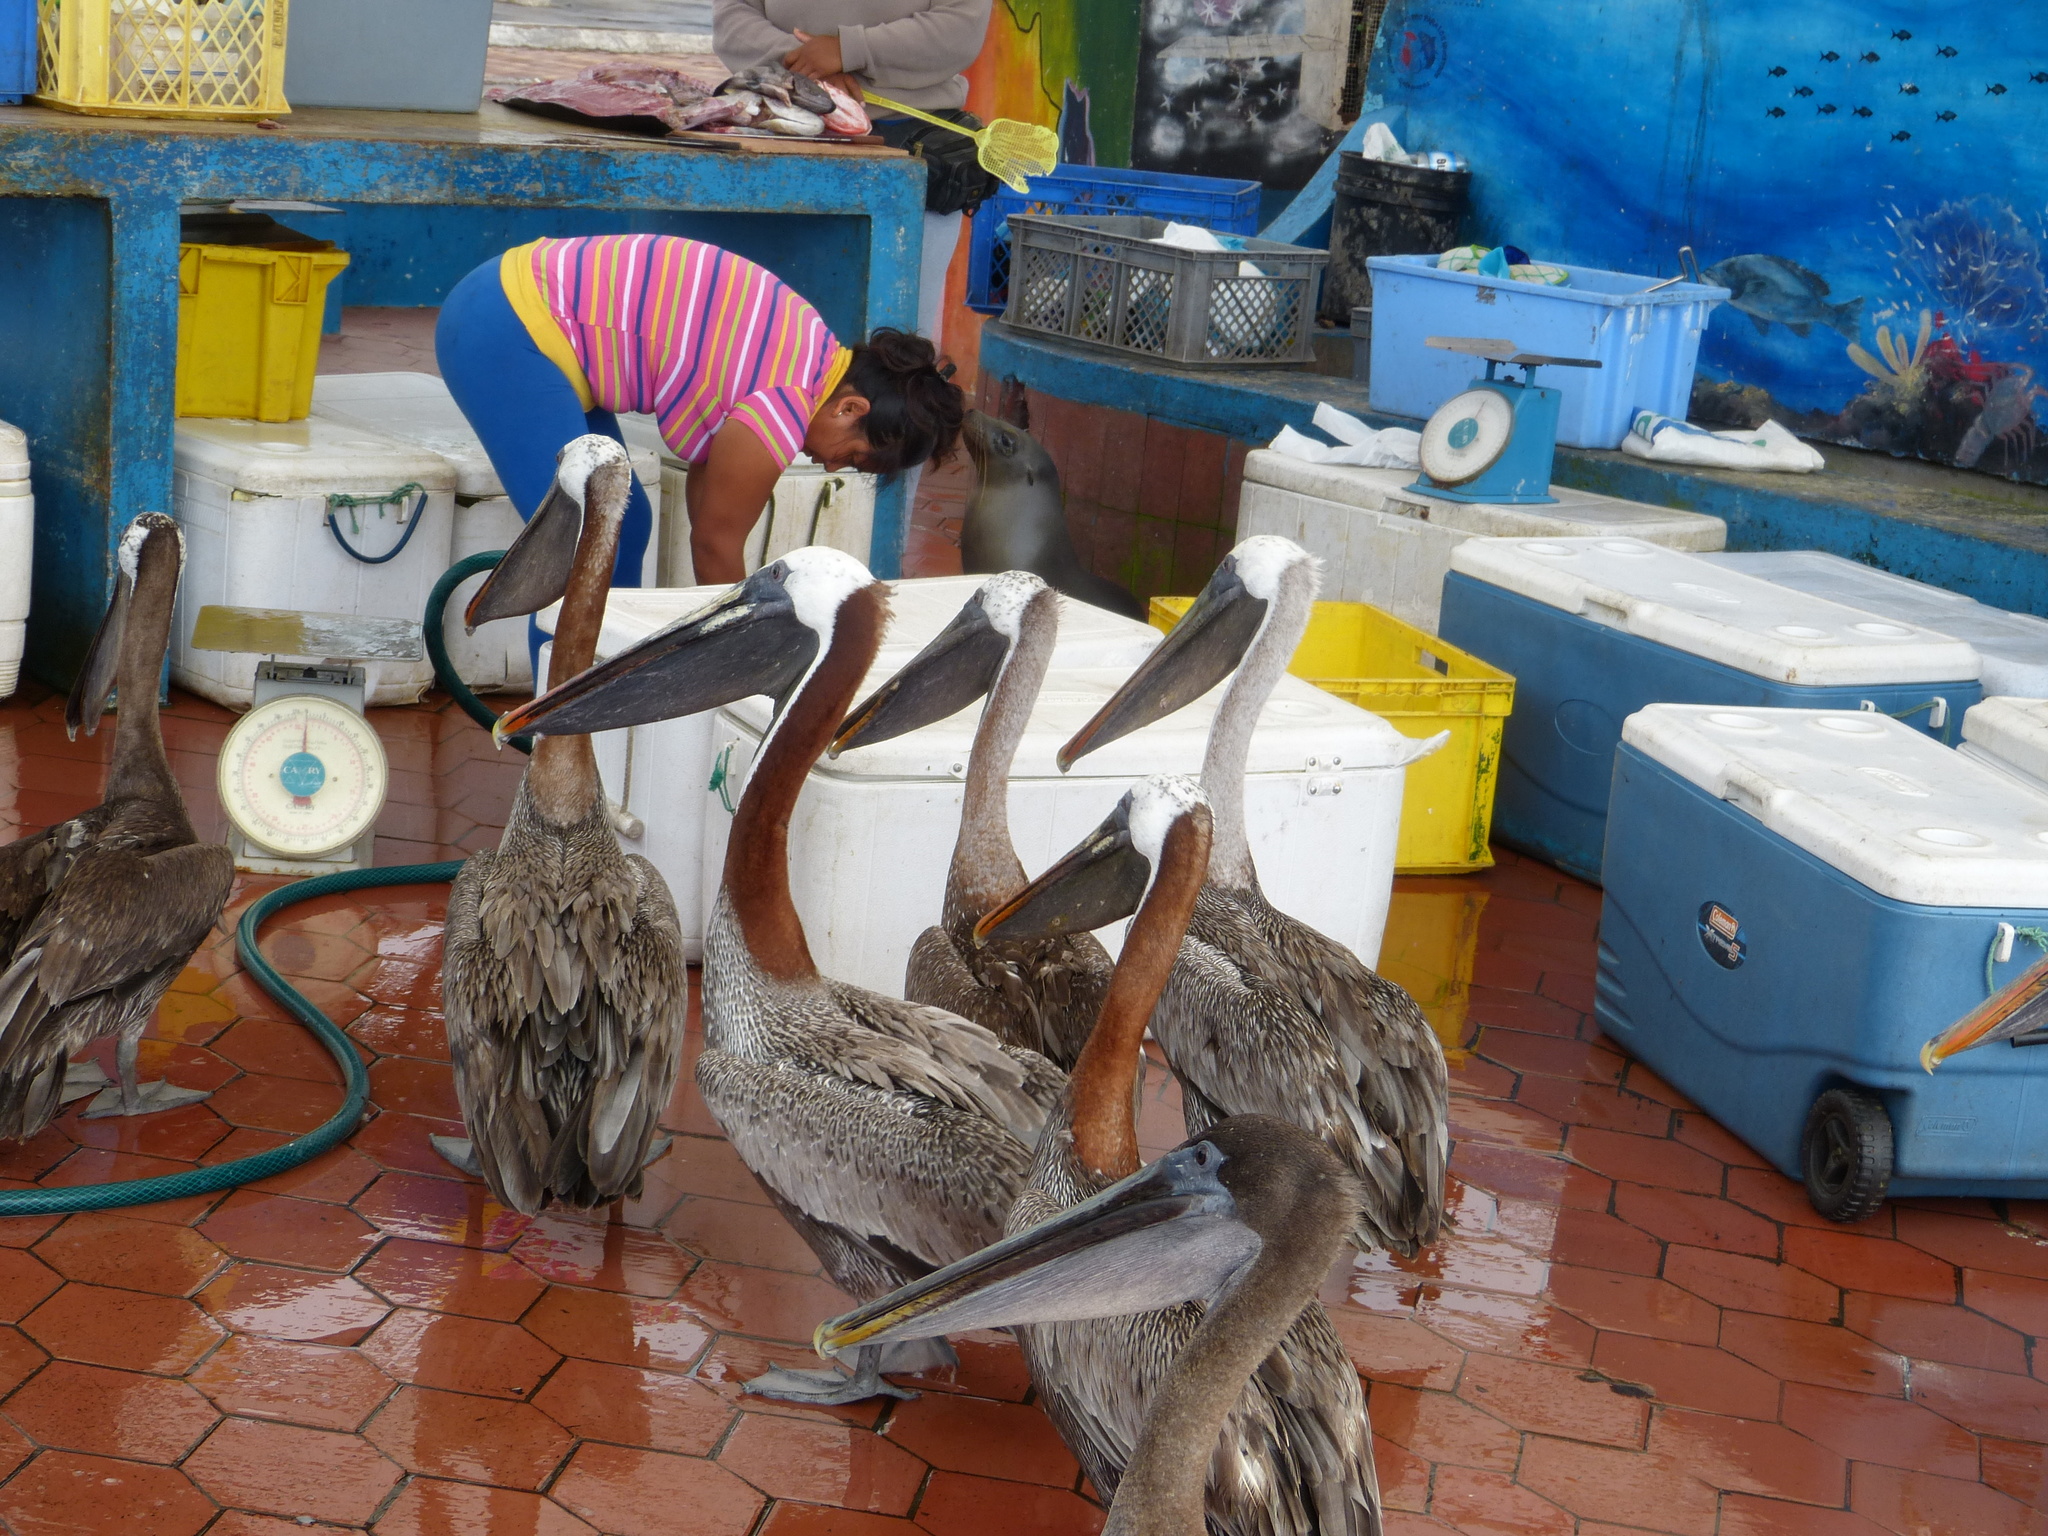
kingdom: Animalia
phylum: Chordata
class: Aves
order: Pelecaniformes
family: Pelecanidae
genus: Pelecanus
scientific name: Pelecanus occidentalis
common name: Brown pelican
